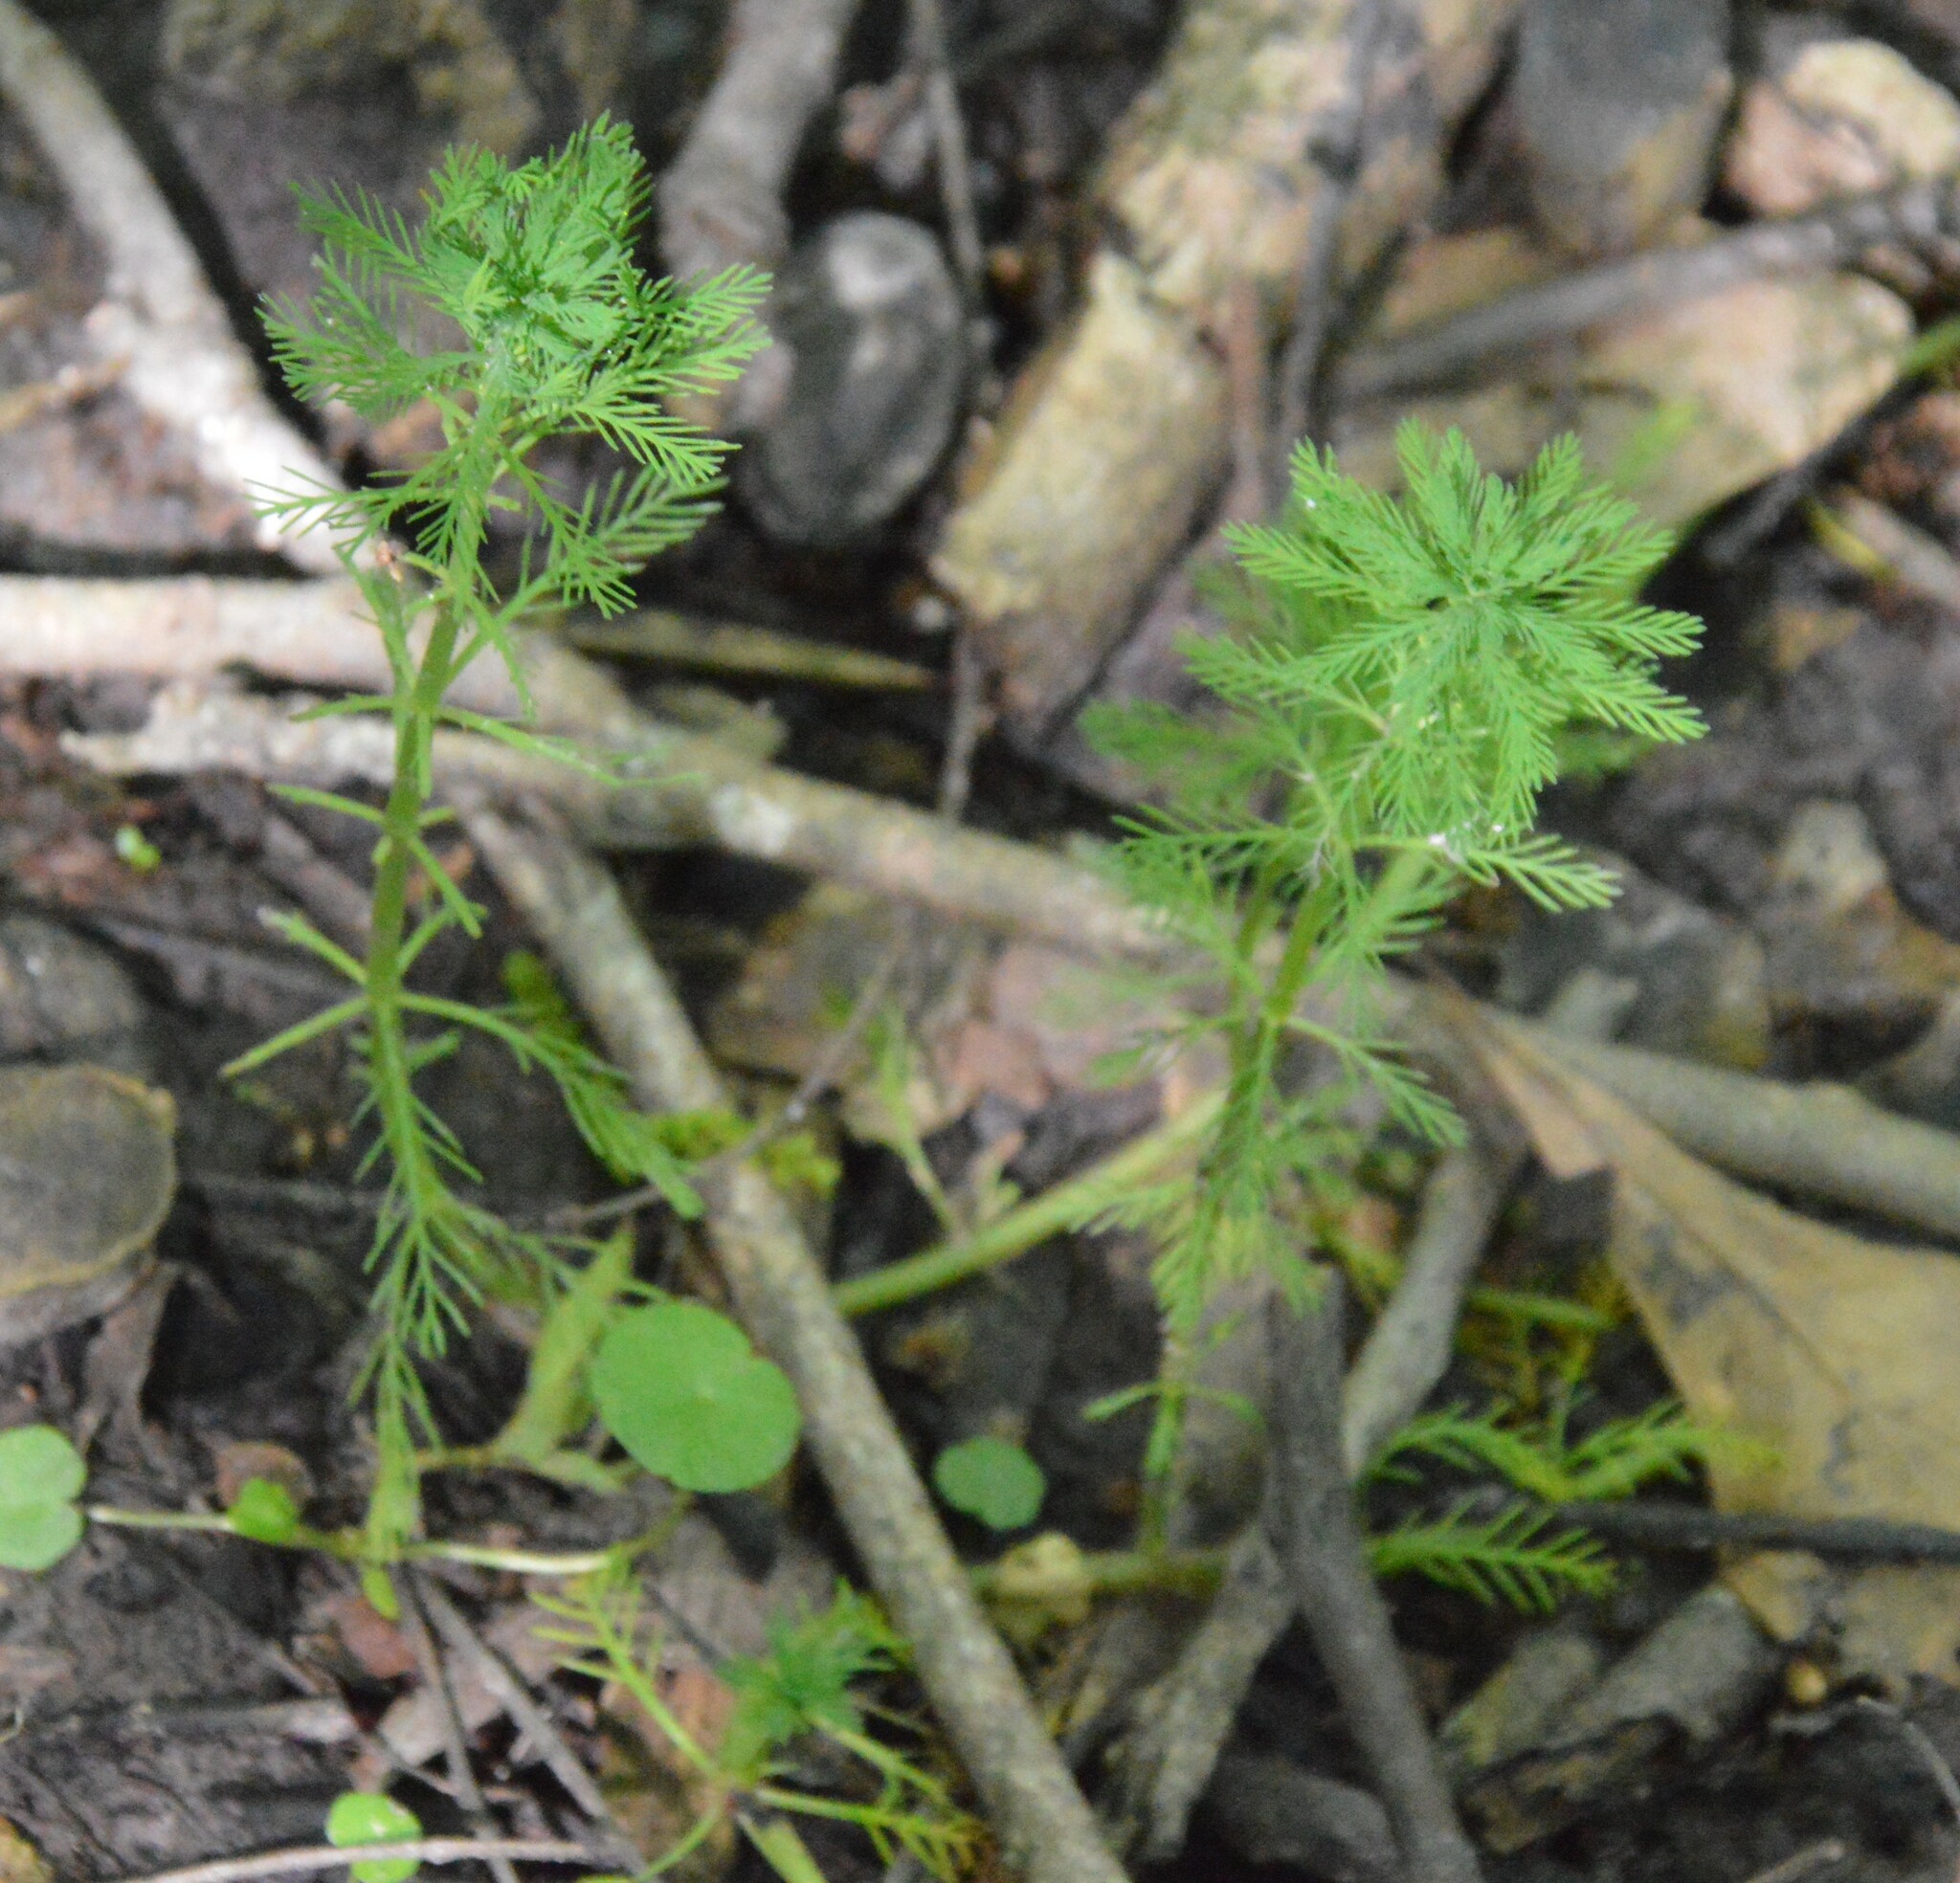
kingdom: Plantae
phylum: Tracheophyta
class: Magnoliopsida
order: Saxifragales
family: Haloragaceae
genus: Myriophyllum
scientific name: Myriophyllum aquaticum
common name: Parrot's feather
